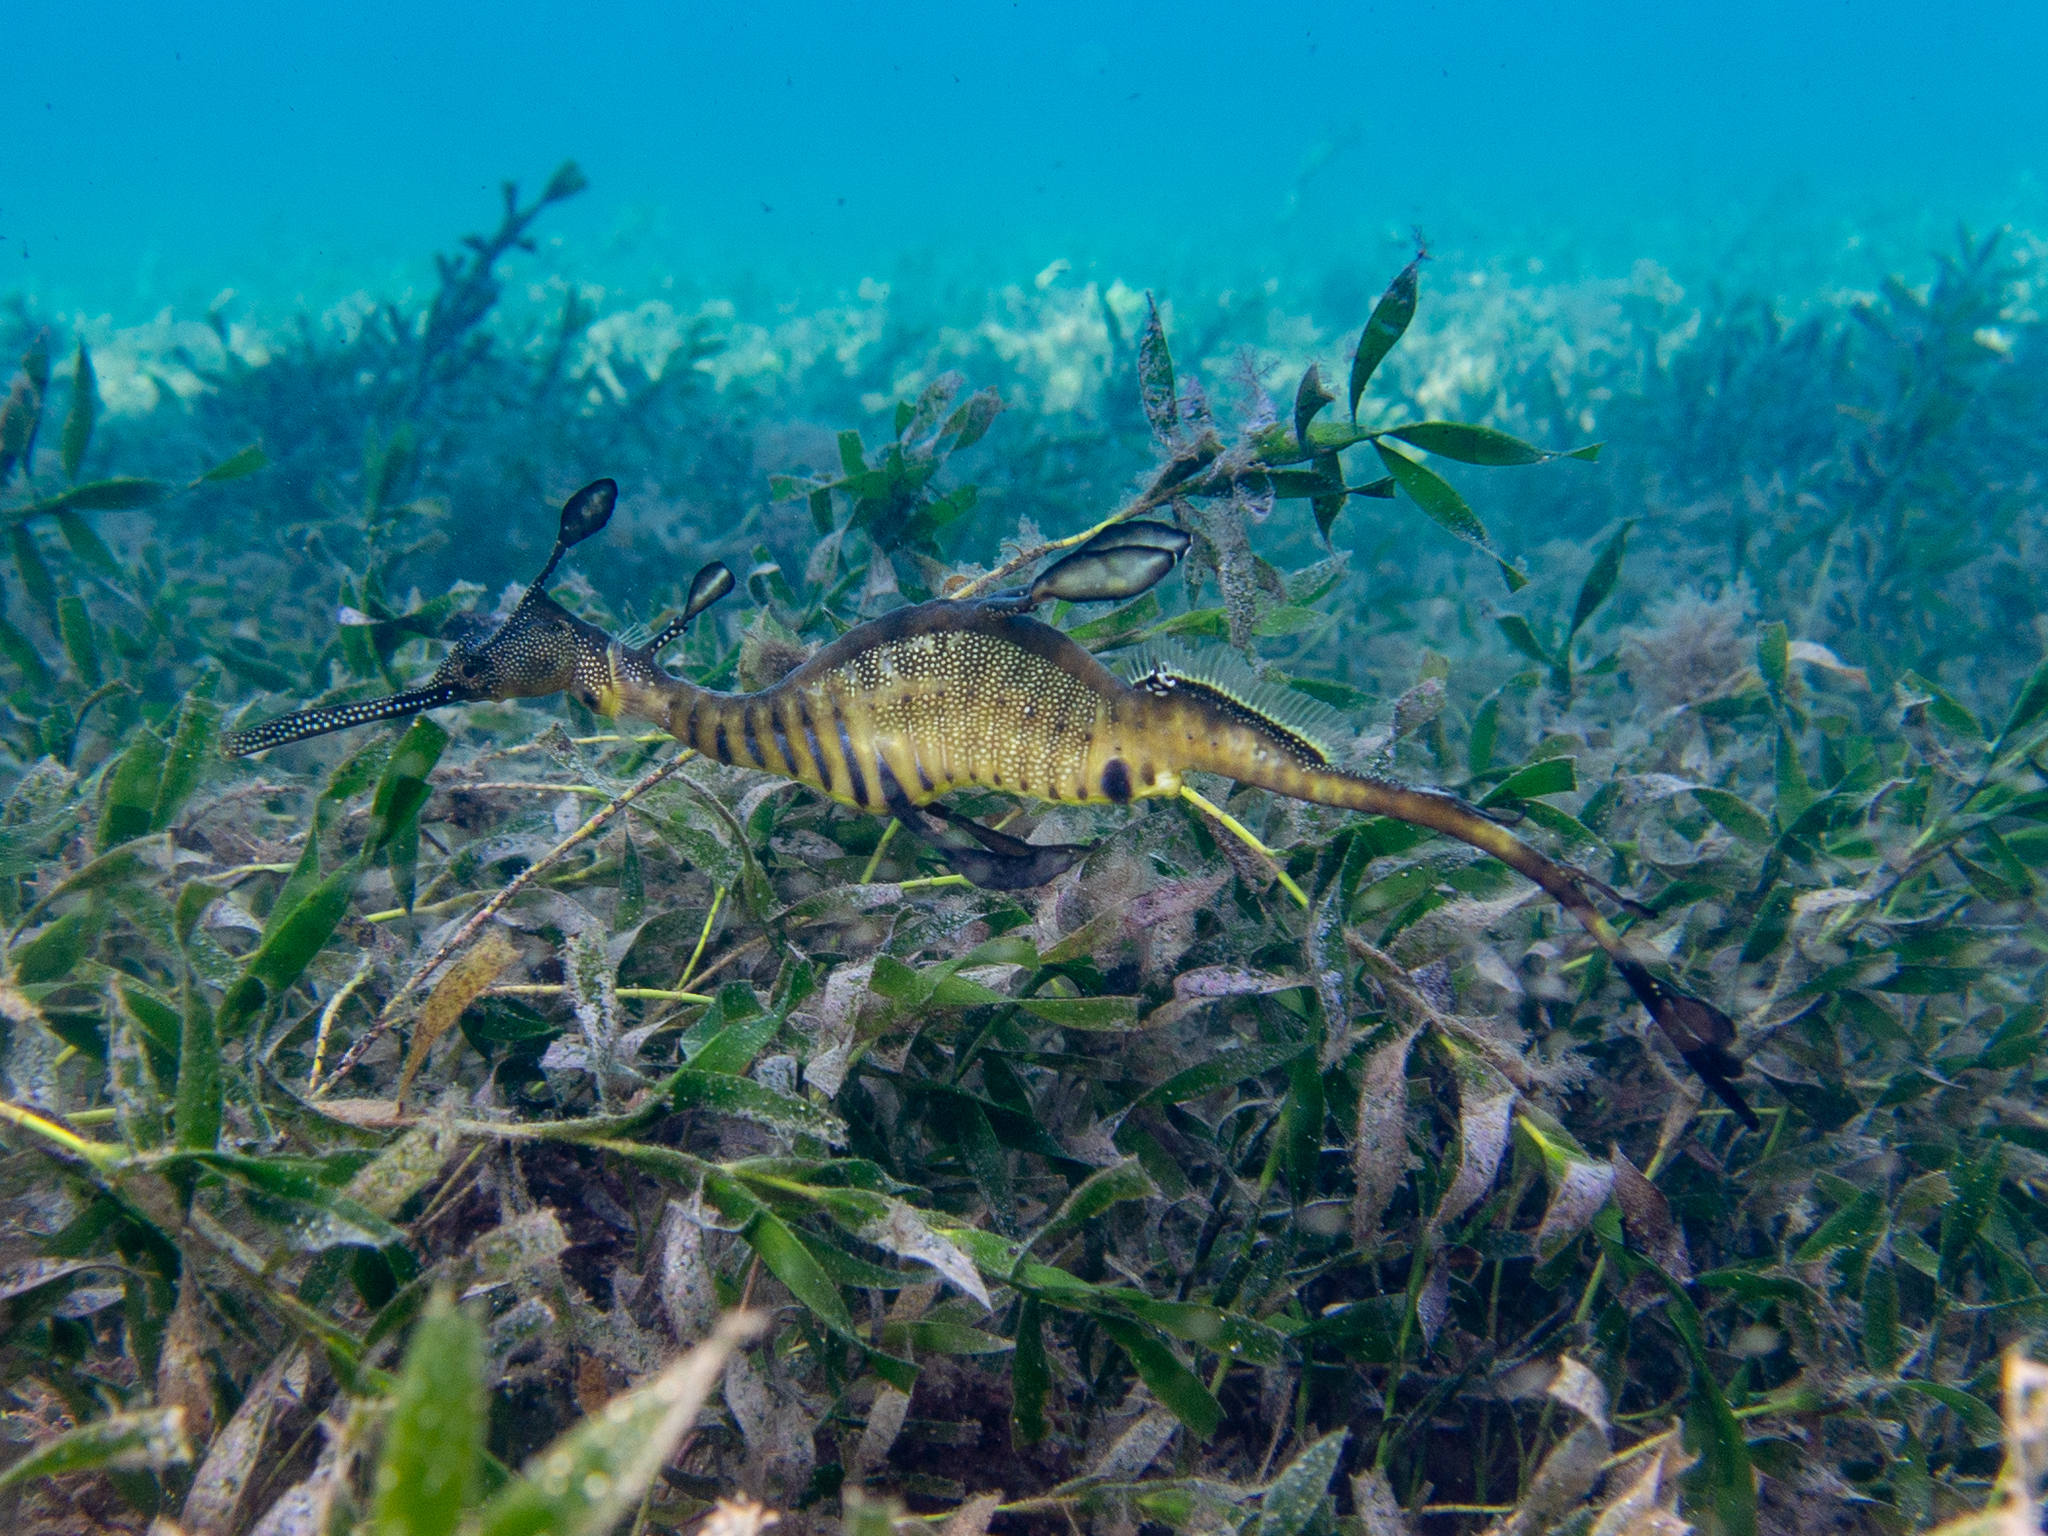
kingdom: Animalia
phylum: Chordata
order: Syngnathiformes
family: Syngnathidae
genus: Phyllopteryx
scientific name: Phyllopteryx taeniolatus
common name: Common seadragon
